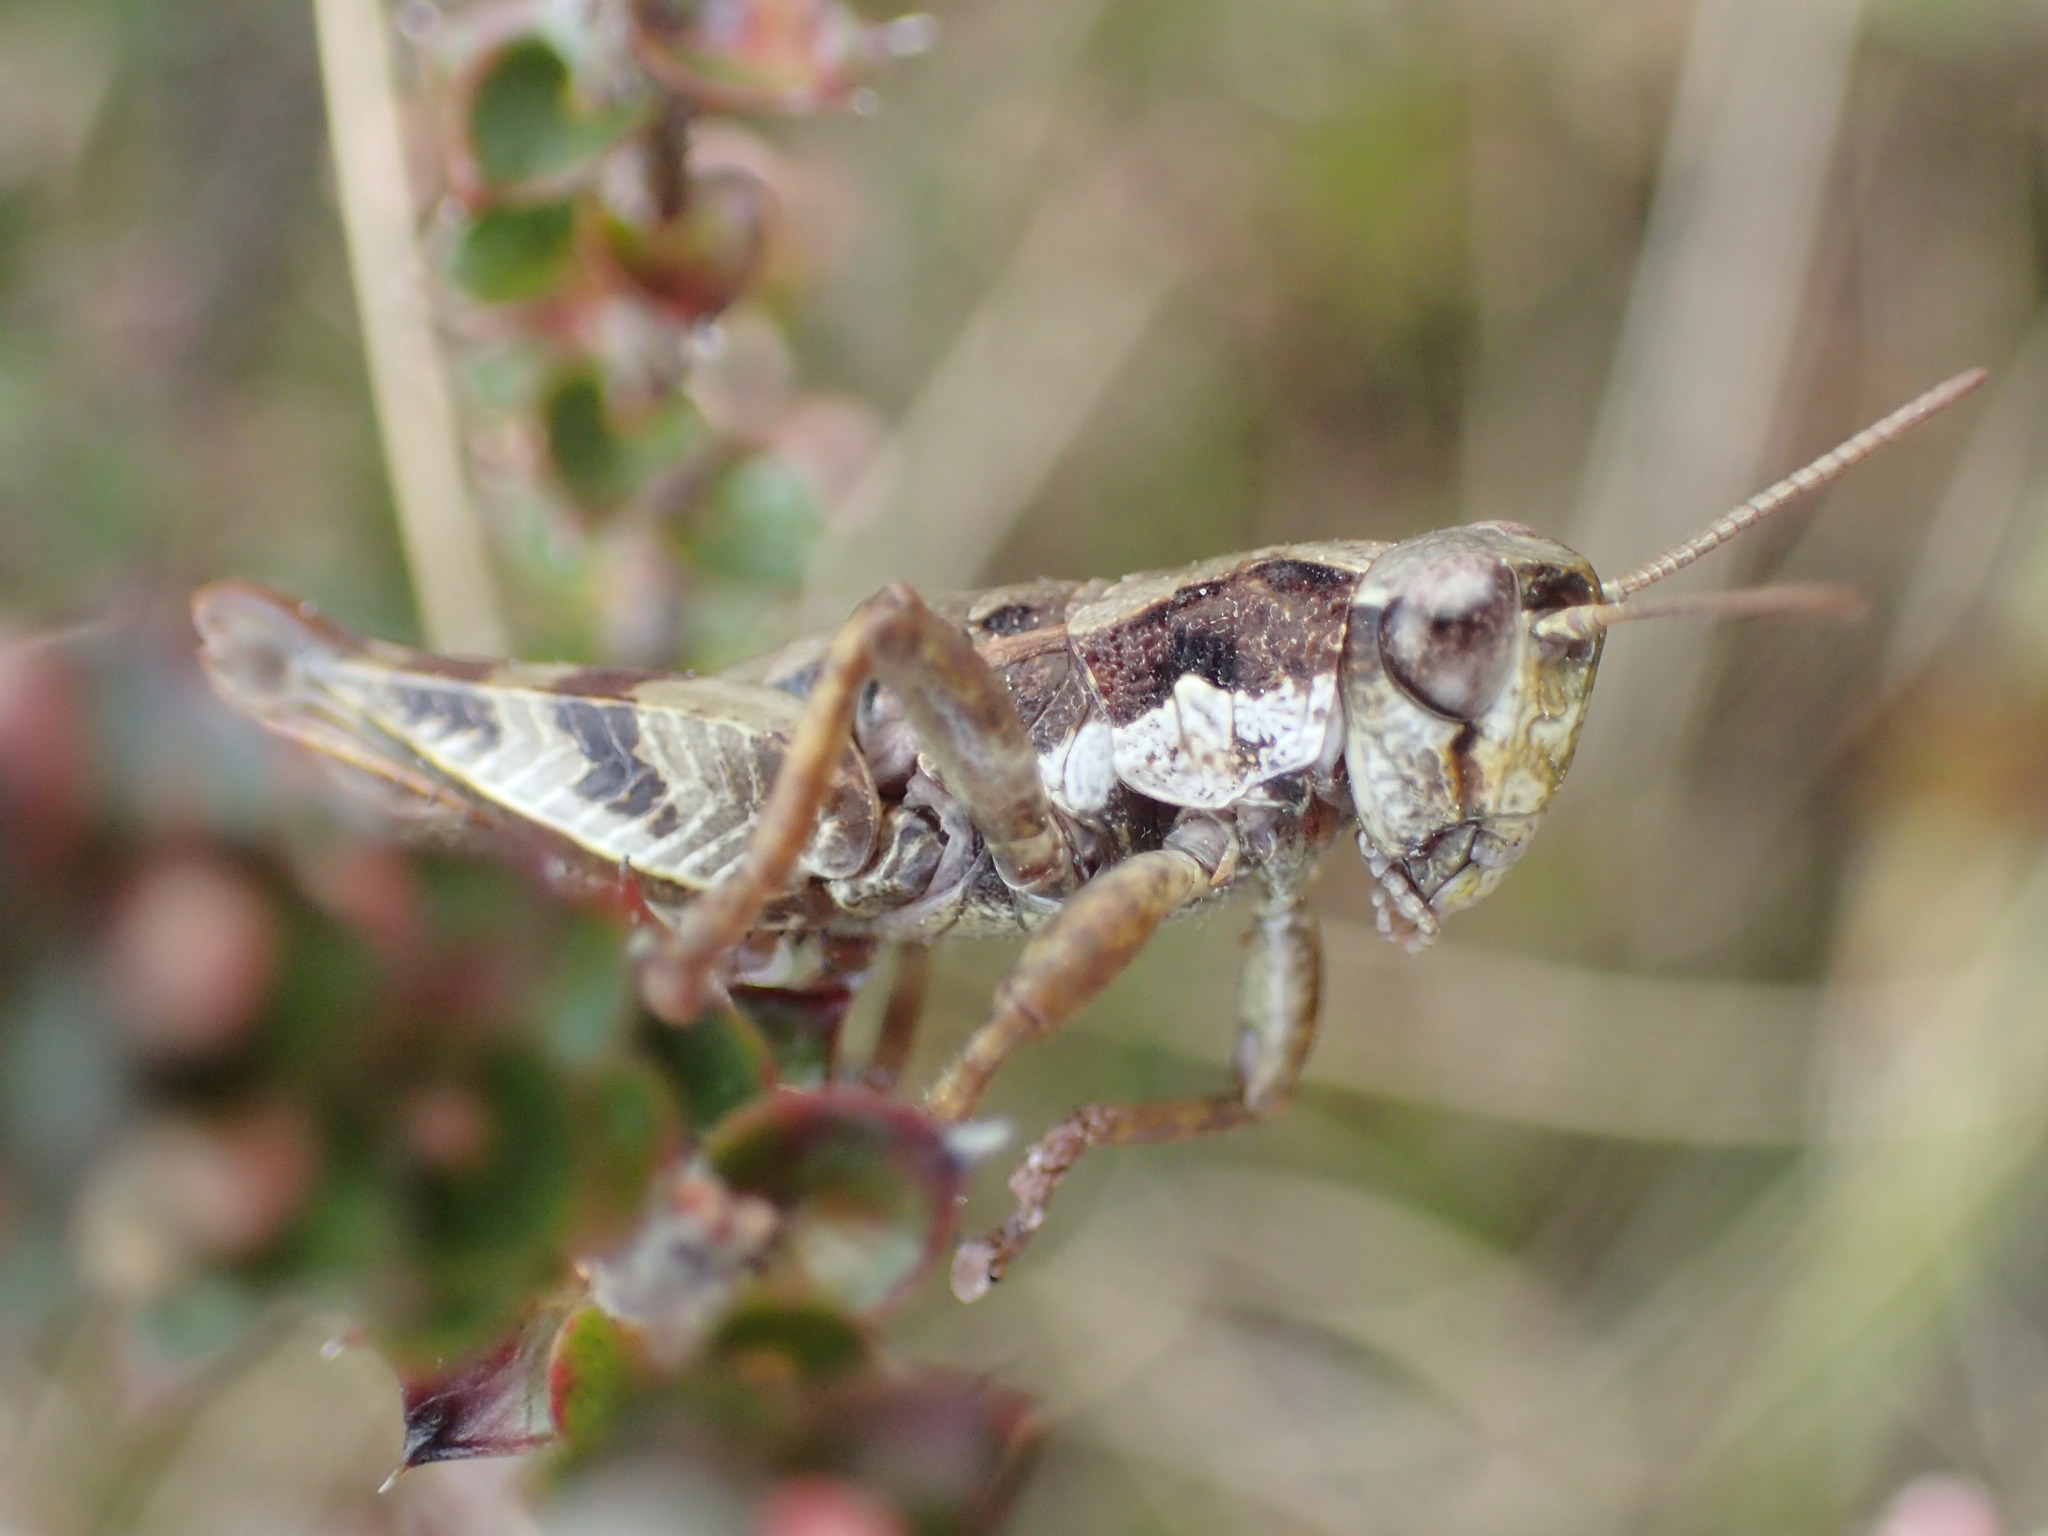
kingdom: Animalia
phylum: Arthropoda
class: Insecta
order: Orthoptera
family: Acrididae
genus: Tasmaniacris
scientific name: Tasmaniacris tasmaniensis
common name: Tasmanian grasshopper
